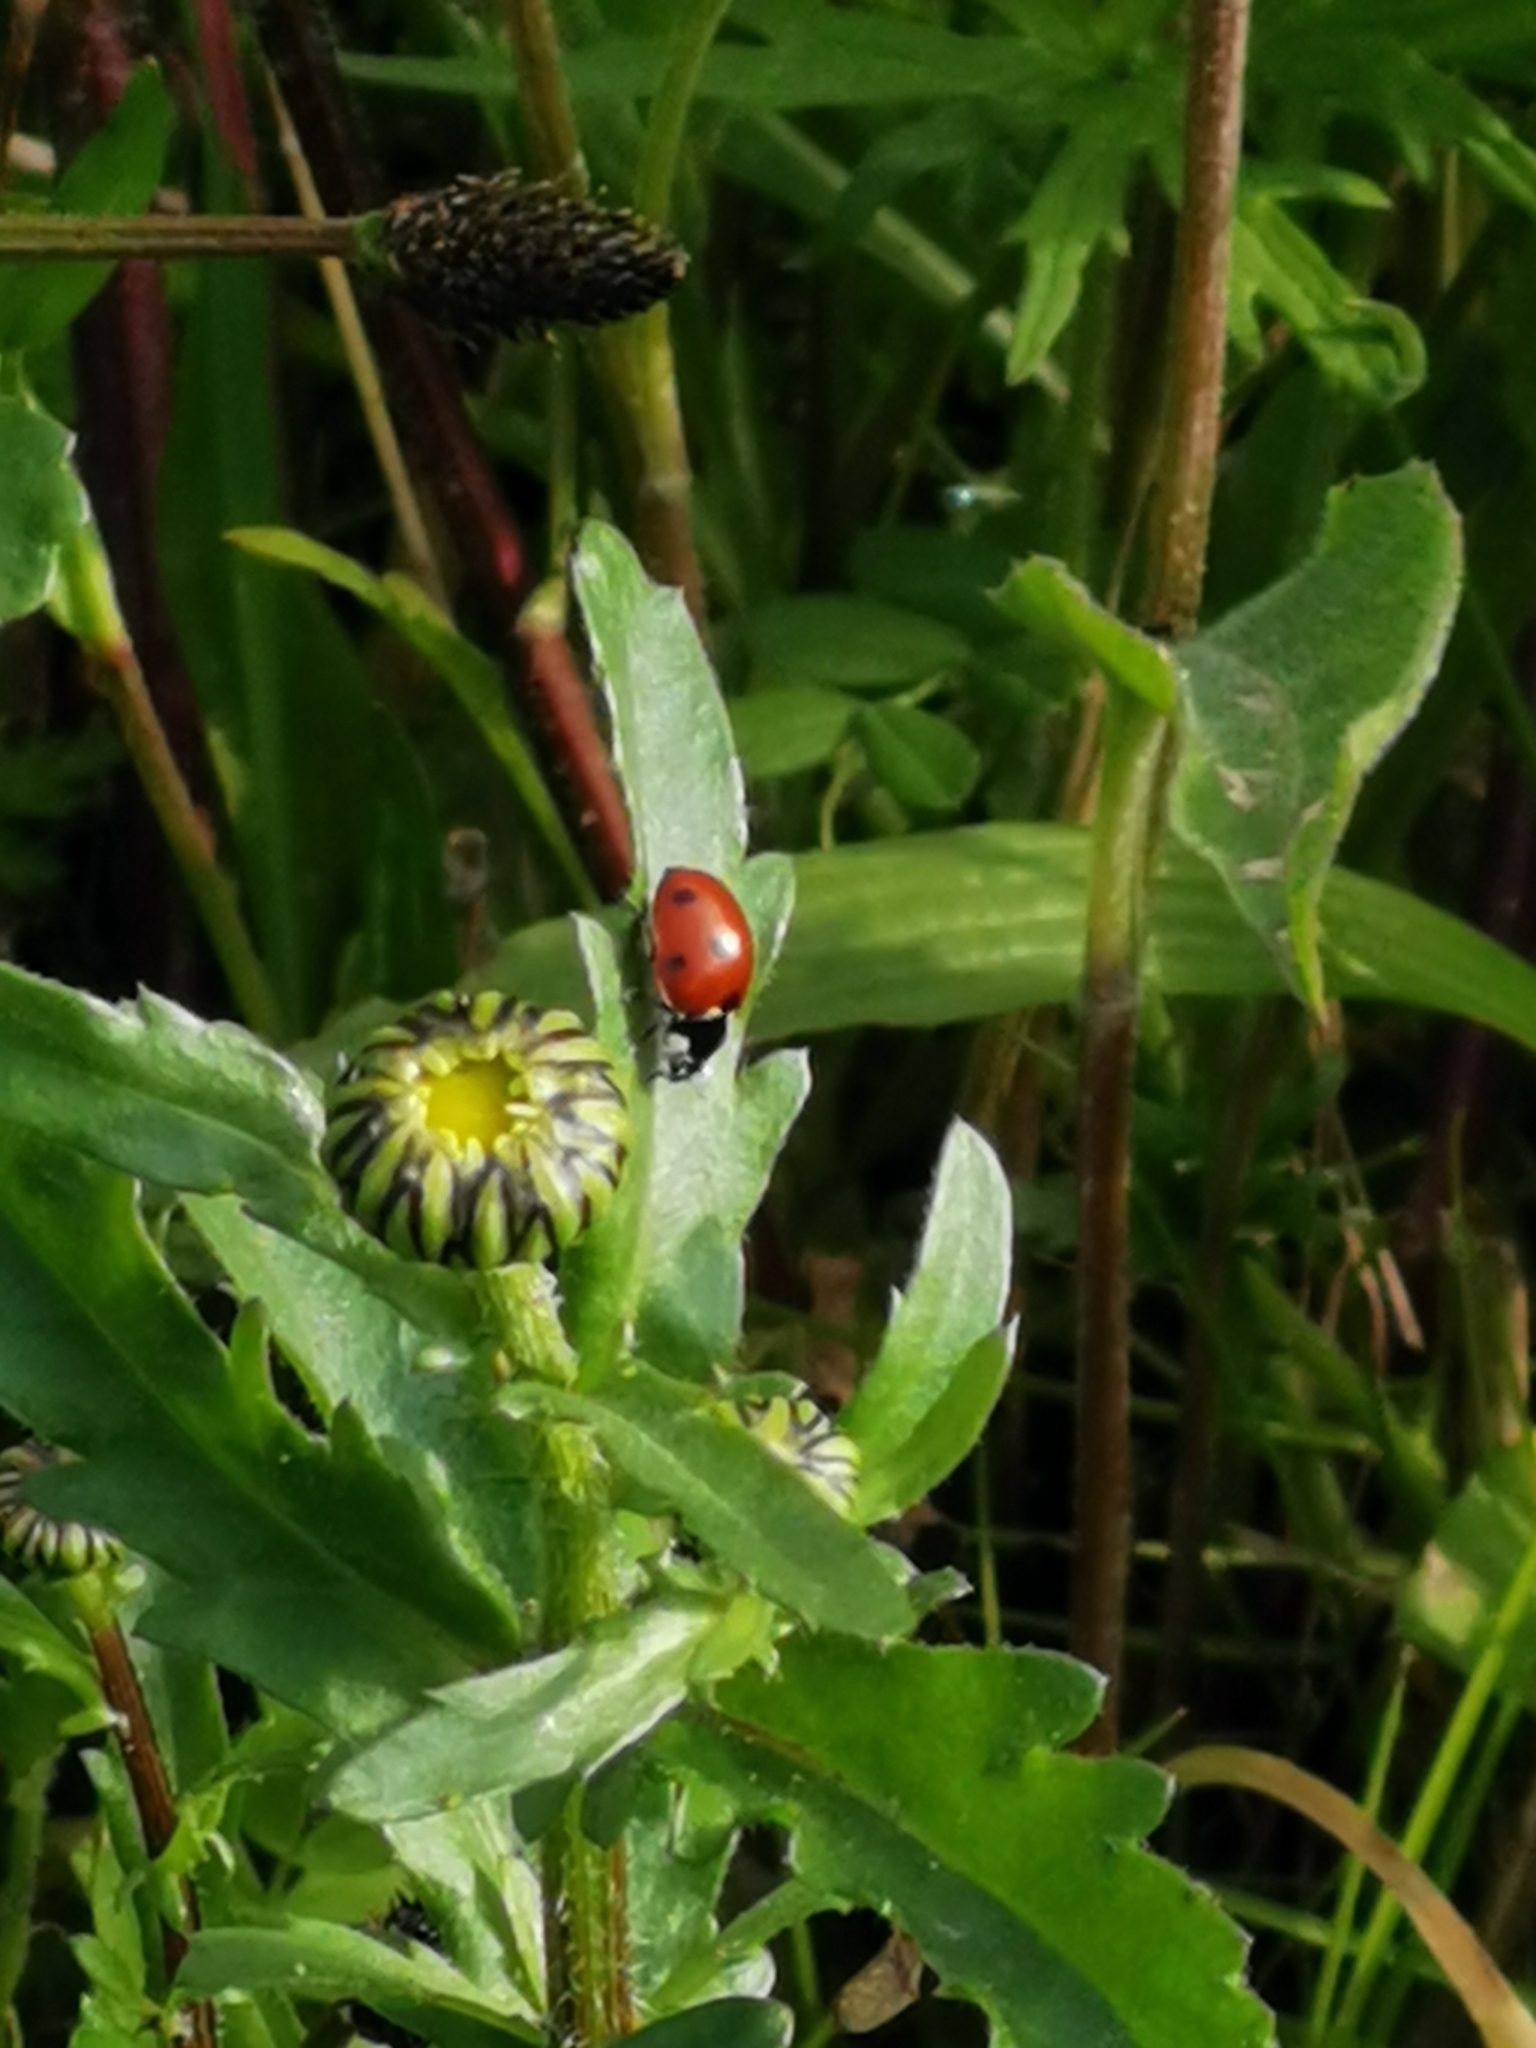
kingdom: Animalia
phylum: Arthropoda
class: Insecta
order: Coleoptera
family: Coccinellidae
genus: Coccinella
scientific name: Coccinella septempunctata
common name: Sevenspotted lady beetle
